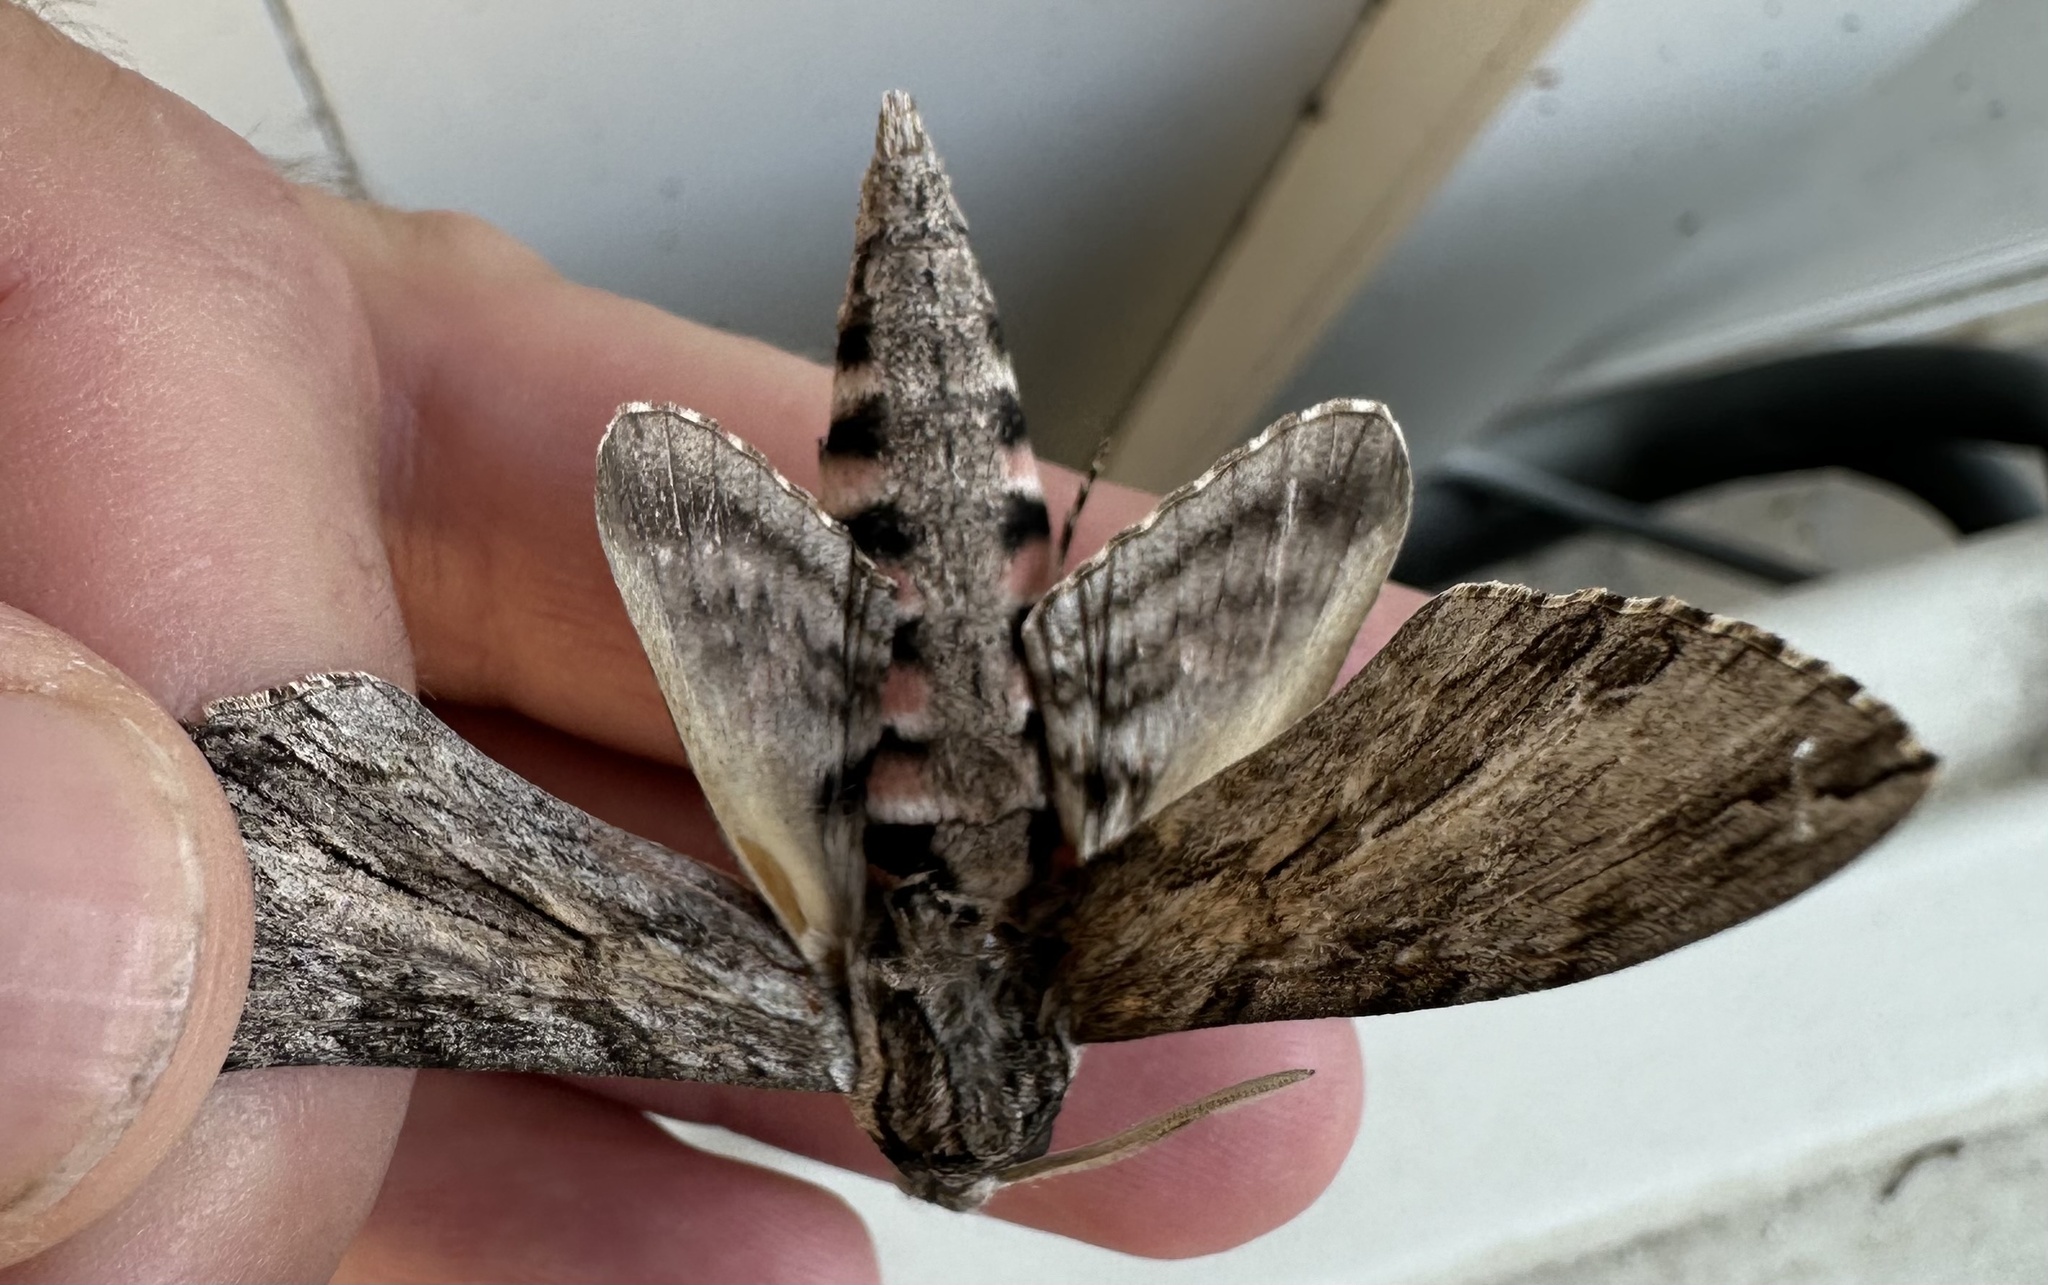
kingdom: Animalia
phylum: Arthropoda
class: Insecta
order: Lepidoptera
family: Sphingidae
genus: Agrius
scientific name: Agrius convolvuli
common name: Convolvulus hawkmoth
